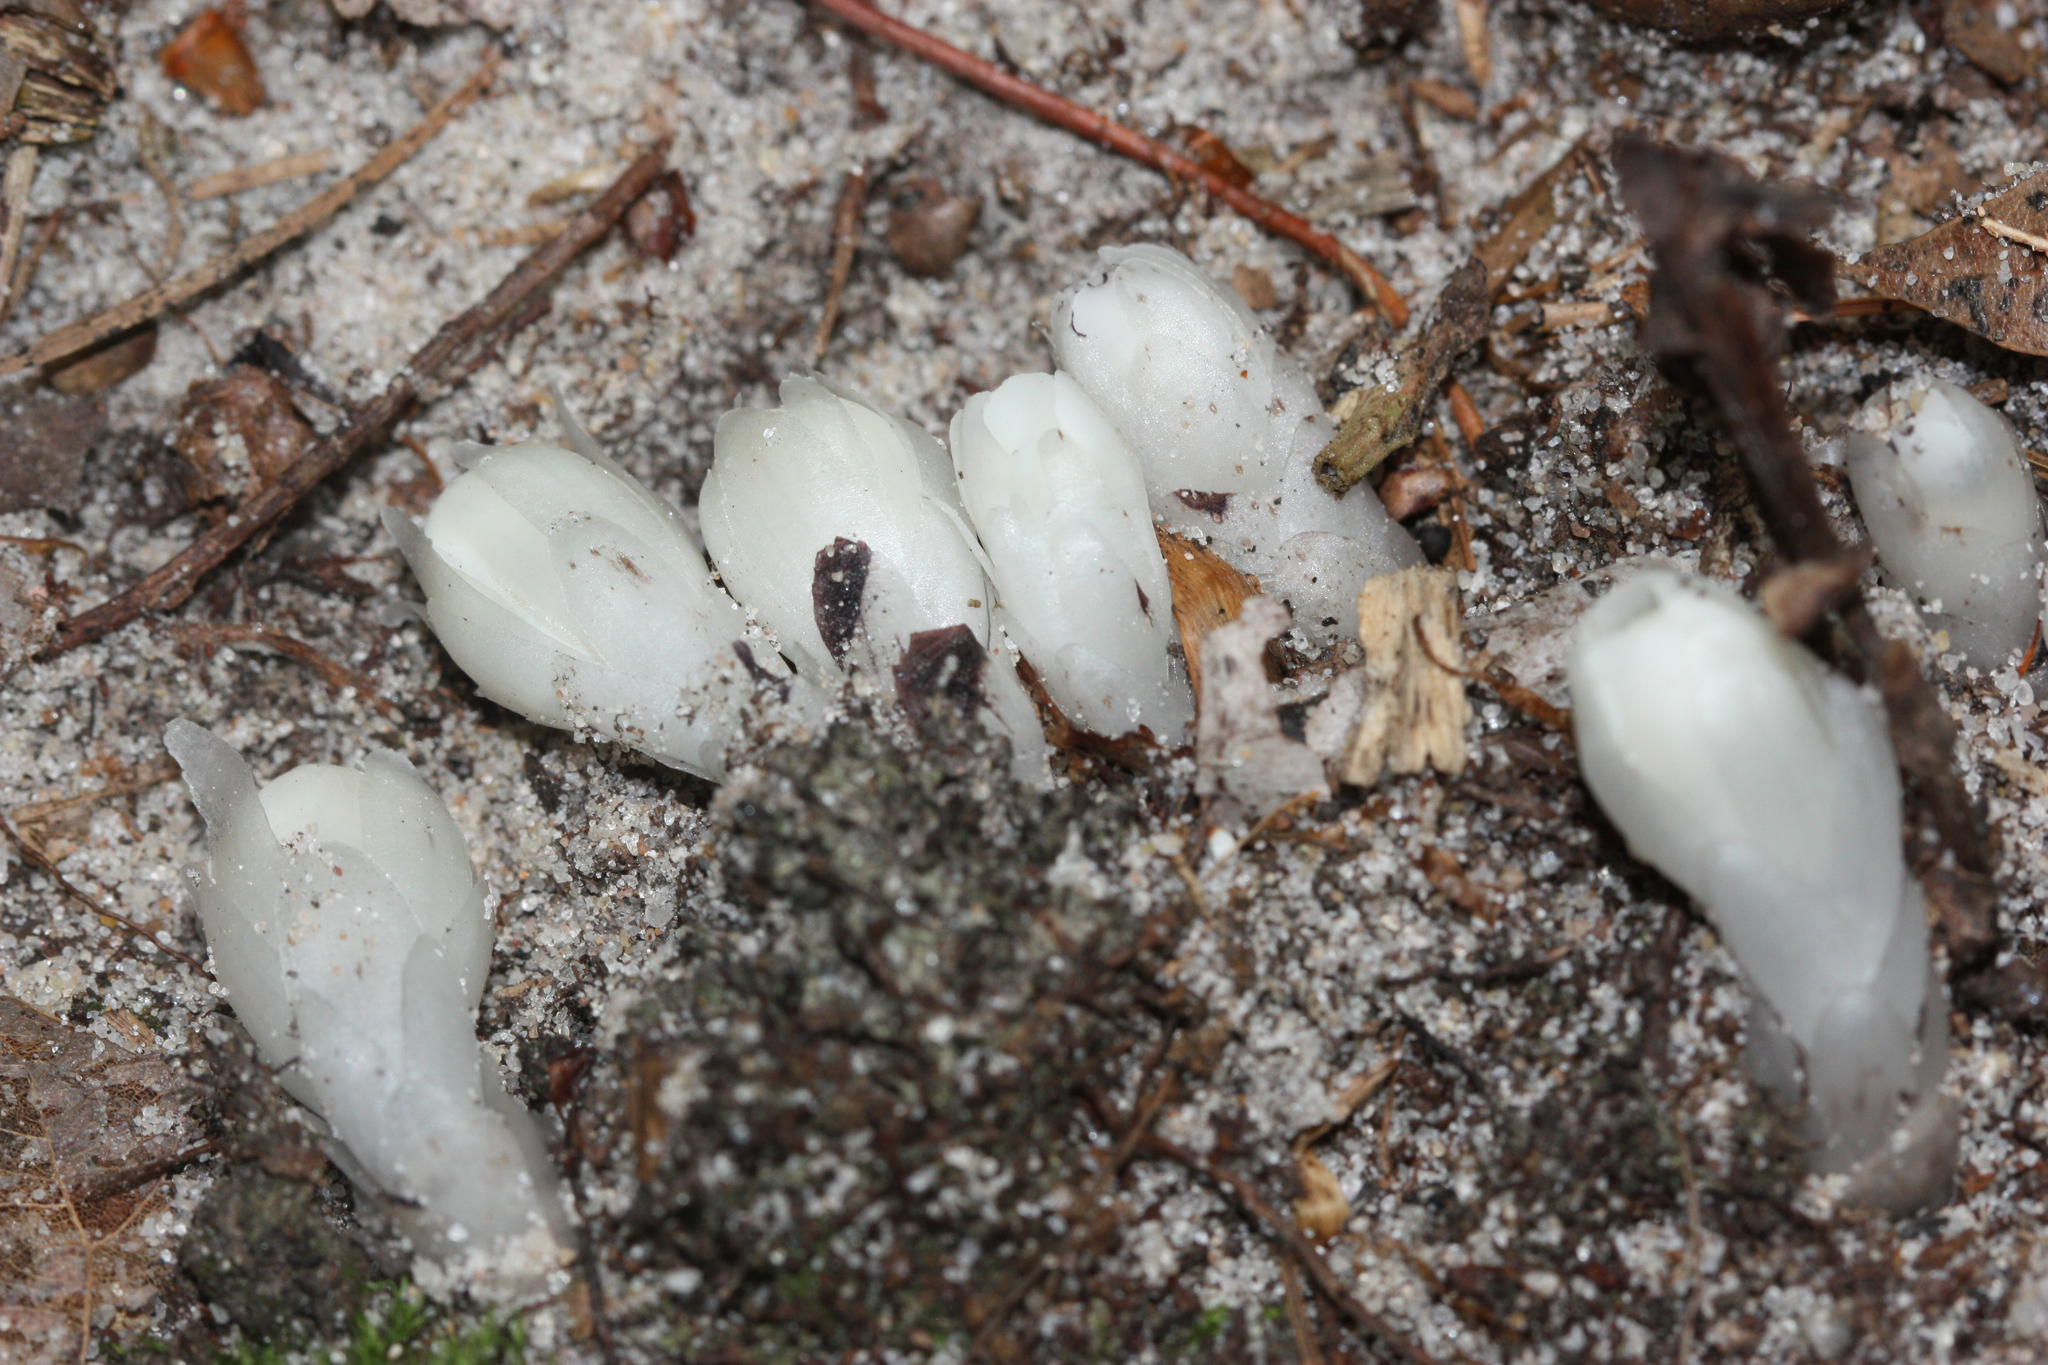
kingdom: Plantae
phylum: Tracheophyta
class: Magnoliopsida
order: Ericales
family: Ericaceae
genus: Monotropa
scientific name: Monotropa uniflora
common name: Convulsion root
